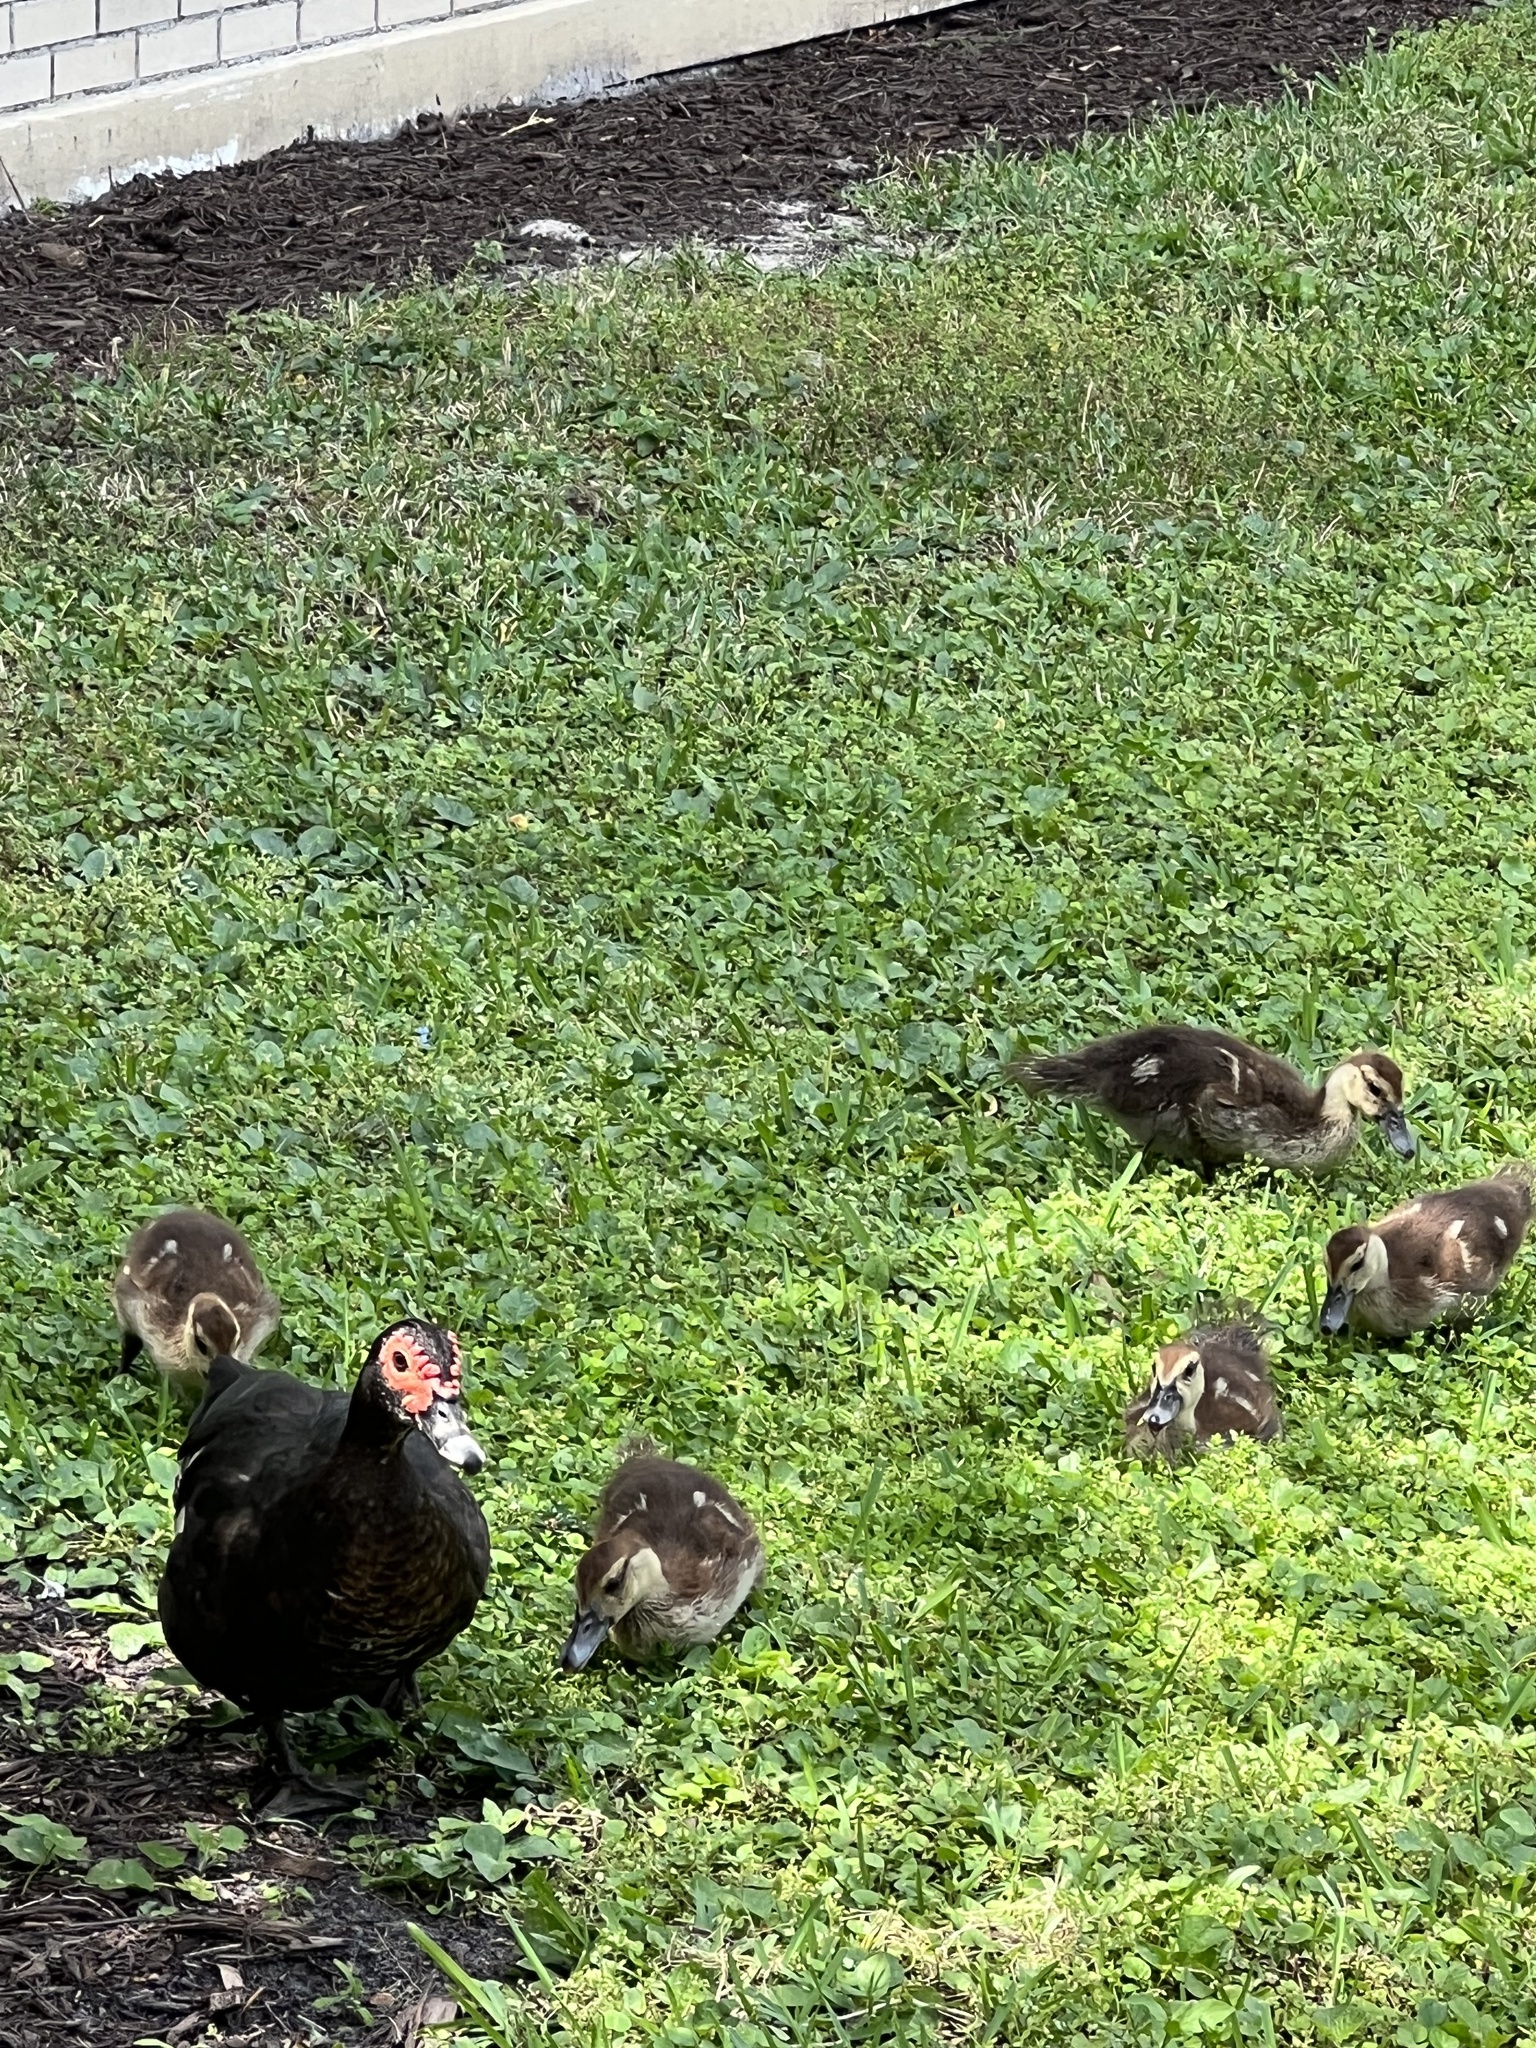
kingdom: Animalia
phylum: Chordata
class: Aves
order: Anseriformes
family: Anatidae
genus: Cairina
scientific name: Cairina moschata
